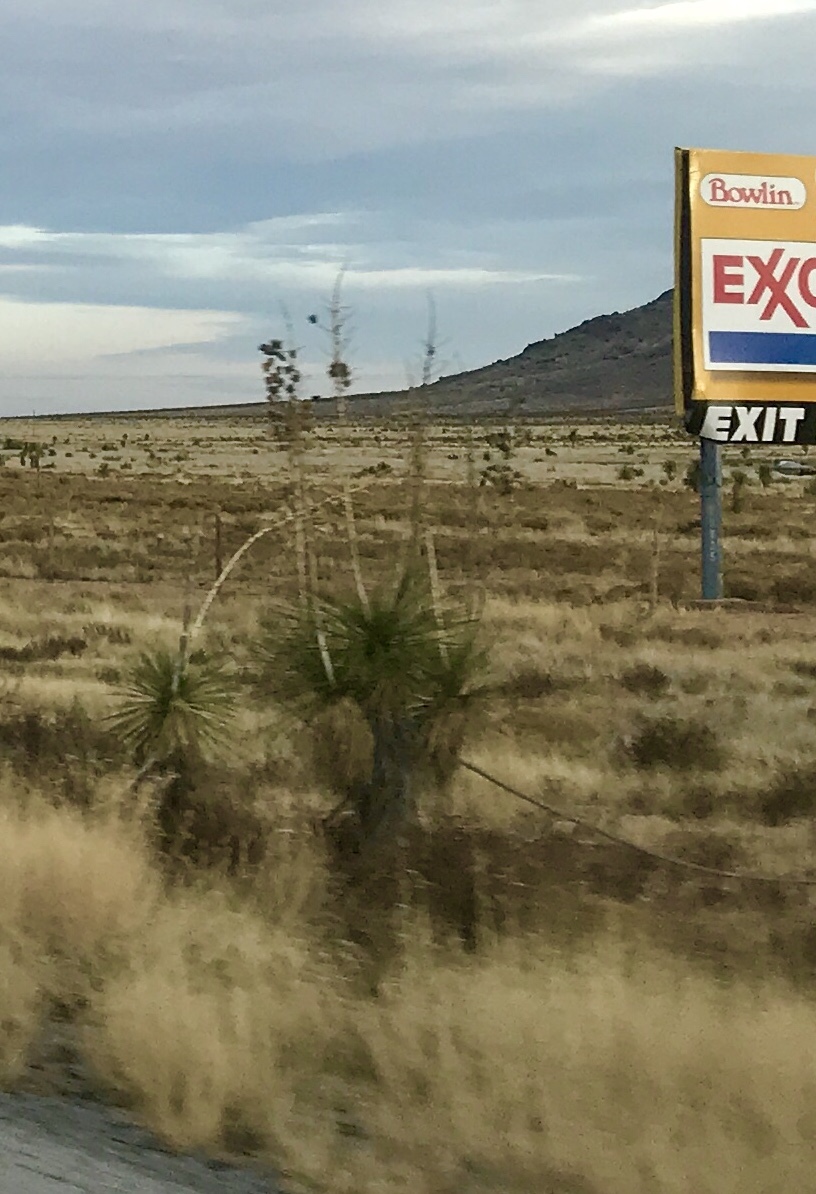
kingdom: Plantae
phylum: Tracheophyta
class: Liliopsida
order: Asparagales
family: Asparagaceae
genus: Yucca
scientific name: Yucca elata
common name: Palmella
